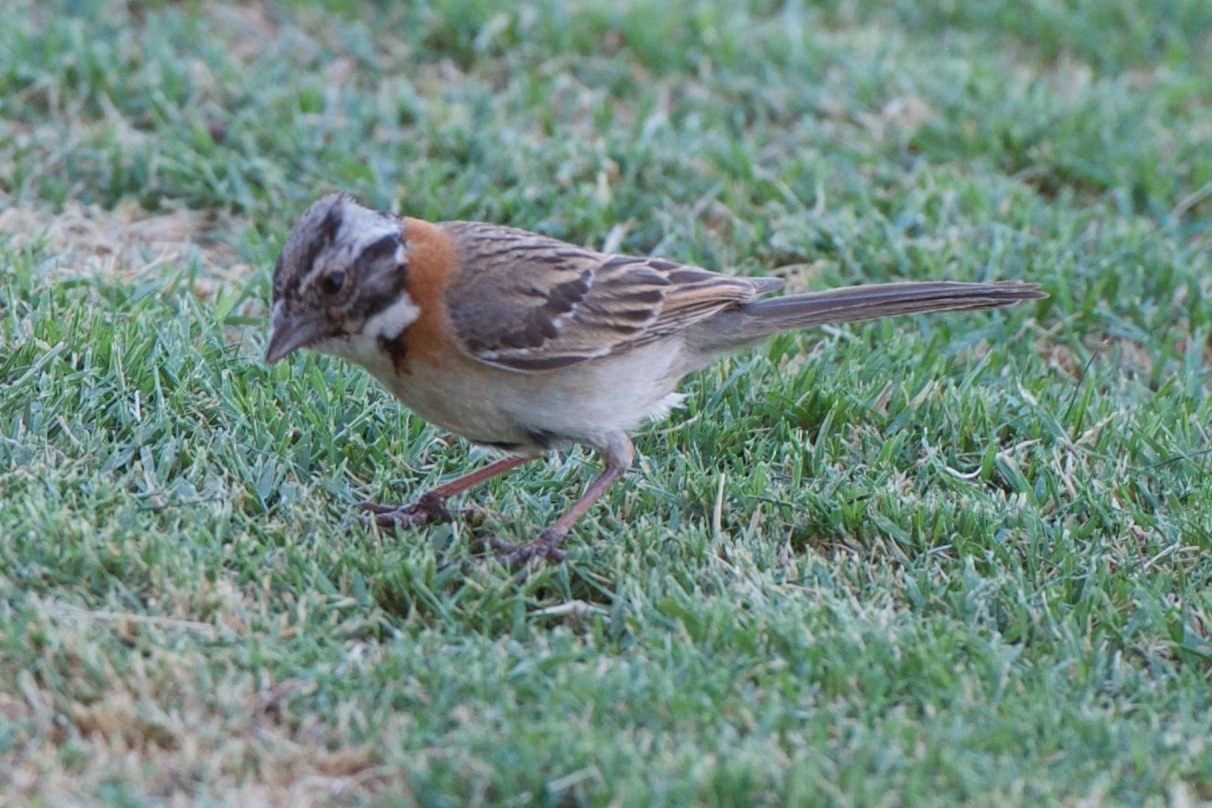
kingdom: Animalia
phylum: Chordata
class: Aves
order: Passeriformes
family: Passerellidae
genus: Zonotrichia
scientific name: Zonotrichia capensis
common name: Rufous-collared sparrow
